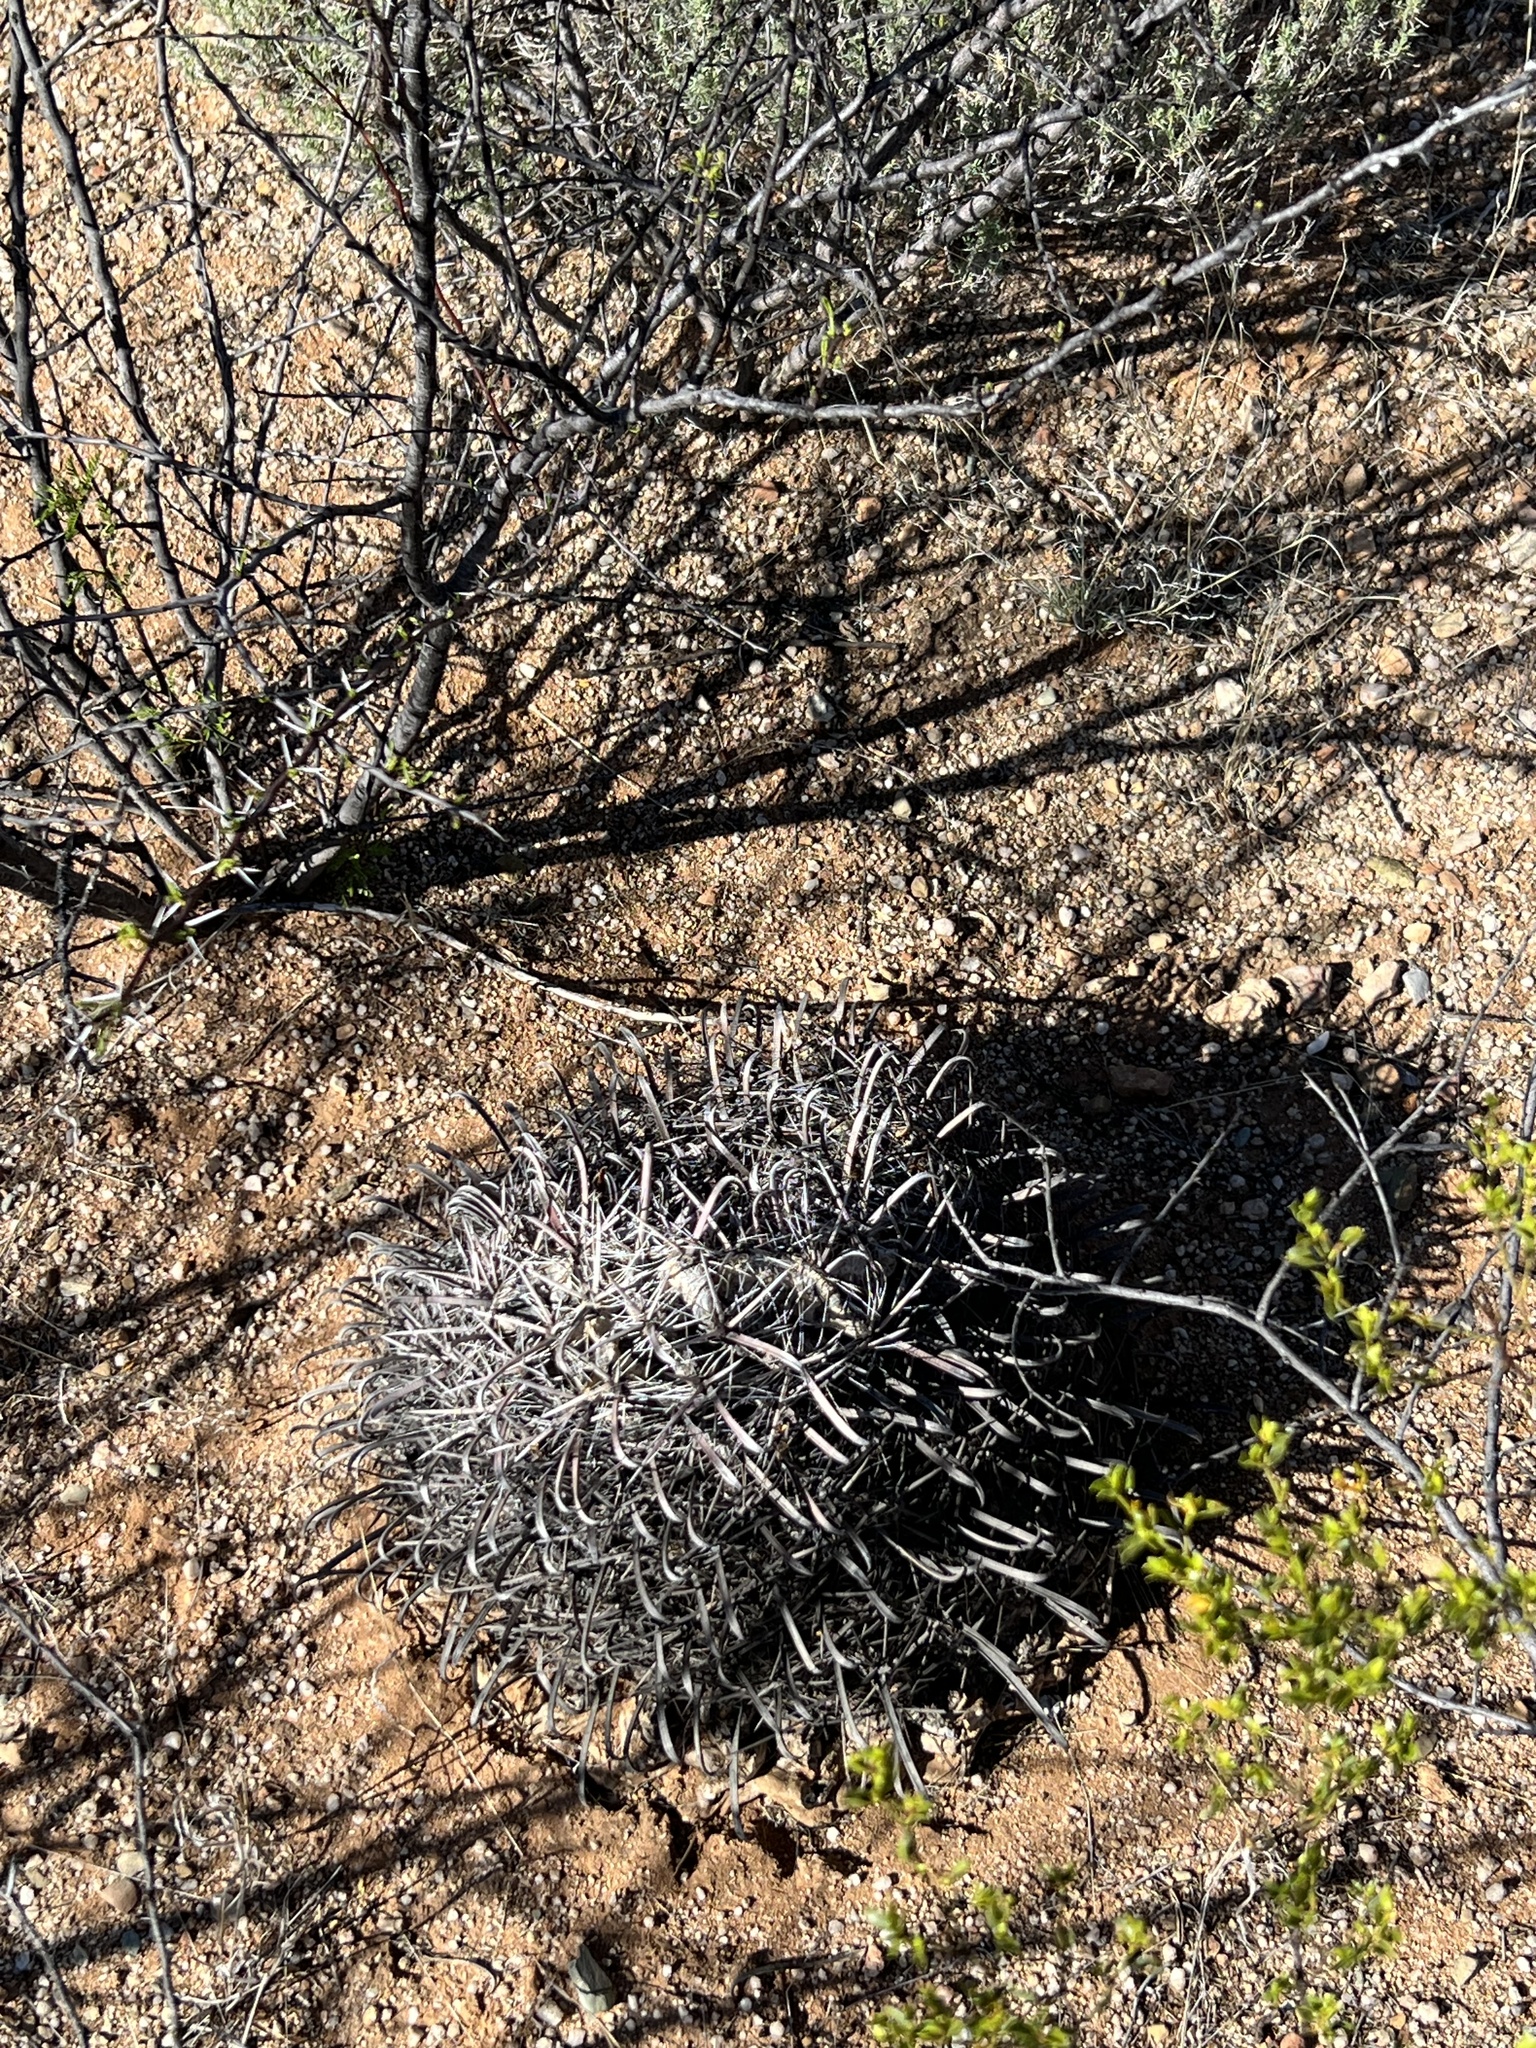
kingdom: Plantae
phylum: Tracheophyta
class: Magnoliopsida
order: Caryophyllales
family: Cactaceae
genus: Ferocactus
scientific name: Ferocactus wislizeni
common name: Candy barrel cactus
